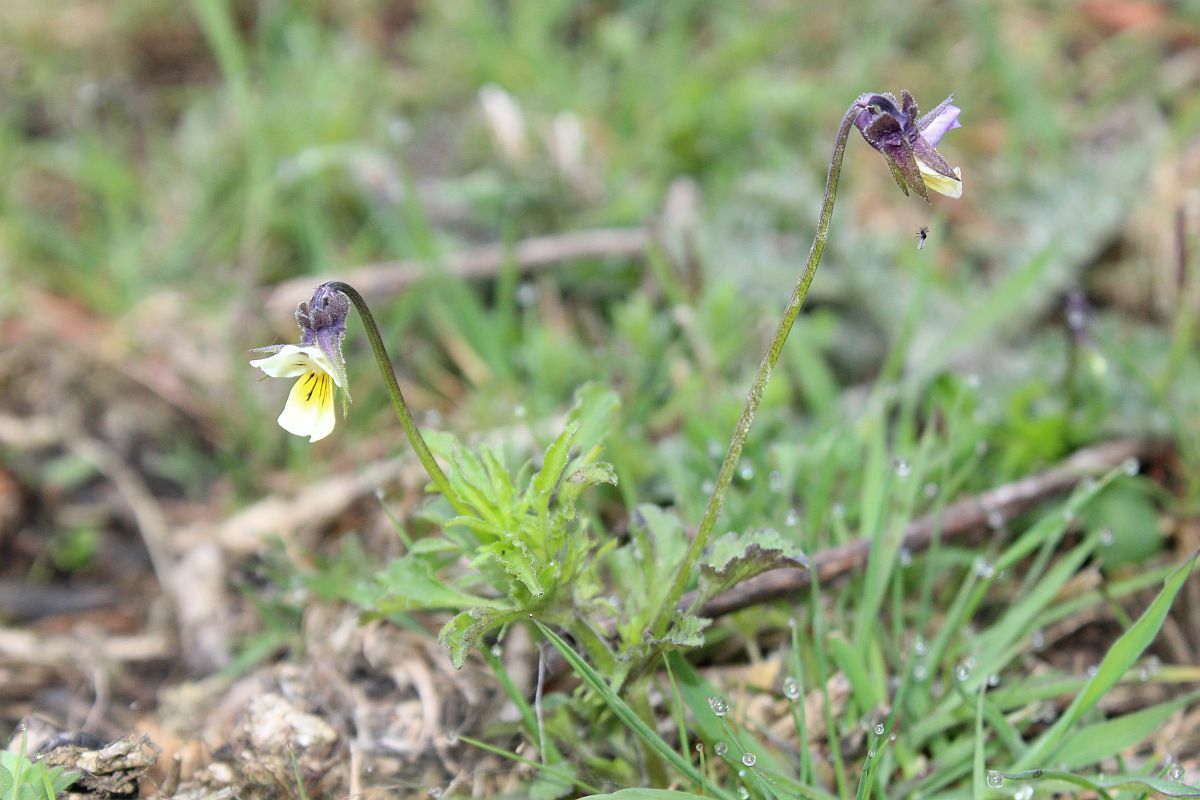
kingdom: Plantae
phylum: Tracheophyta
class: Magnoliopsida
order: Malpighiales
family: Violaceae
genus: Viola
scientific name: Viola arvensis
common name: Field pansy
